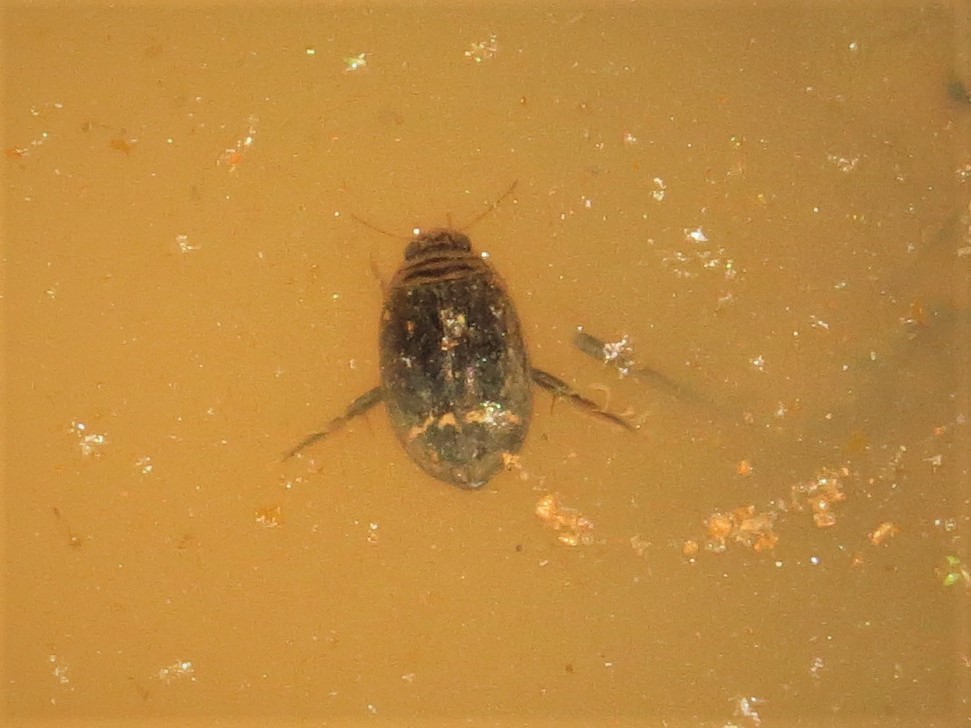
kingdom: Animalia
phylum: Arthropoda
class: Insecta
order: Coleoptera
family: Dytiscidae
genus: Acilius
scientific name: Acilius mediatus
